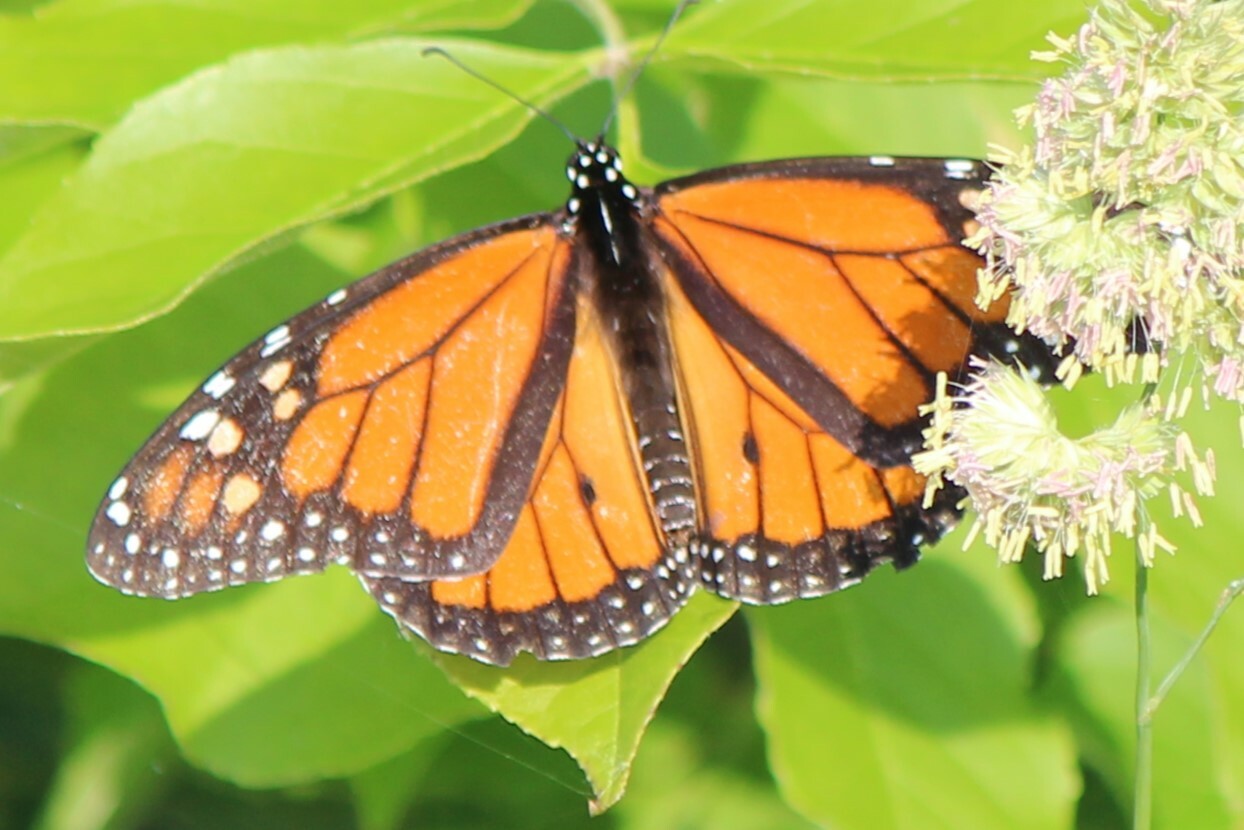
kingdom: Animalia
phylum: Arthropoda
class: Insecta
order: Lepidoptera
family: Nymphalidae
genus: Danaus
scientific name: Danaus plexippus
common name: Monarch
